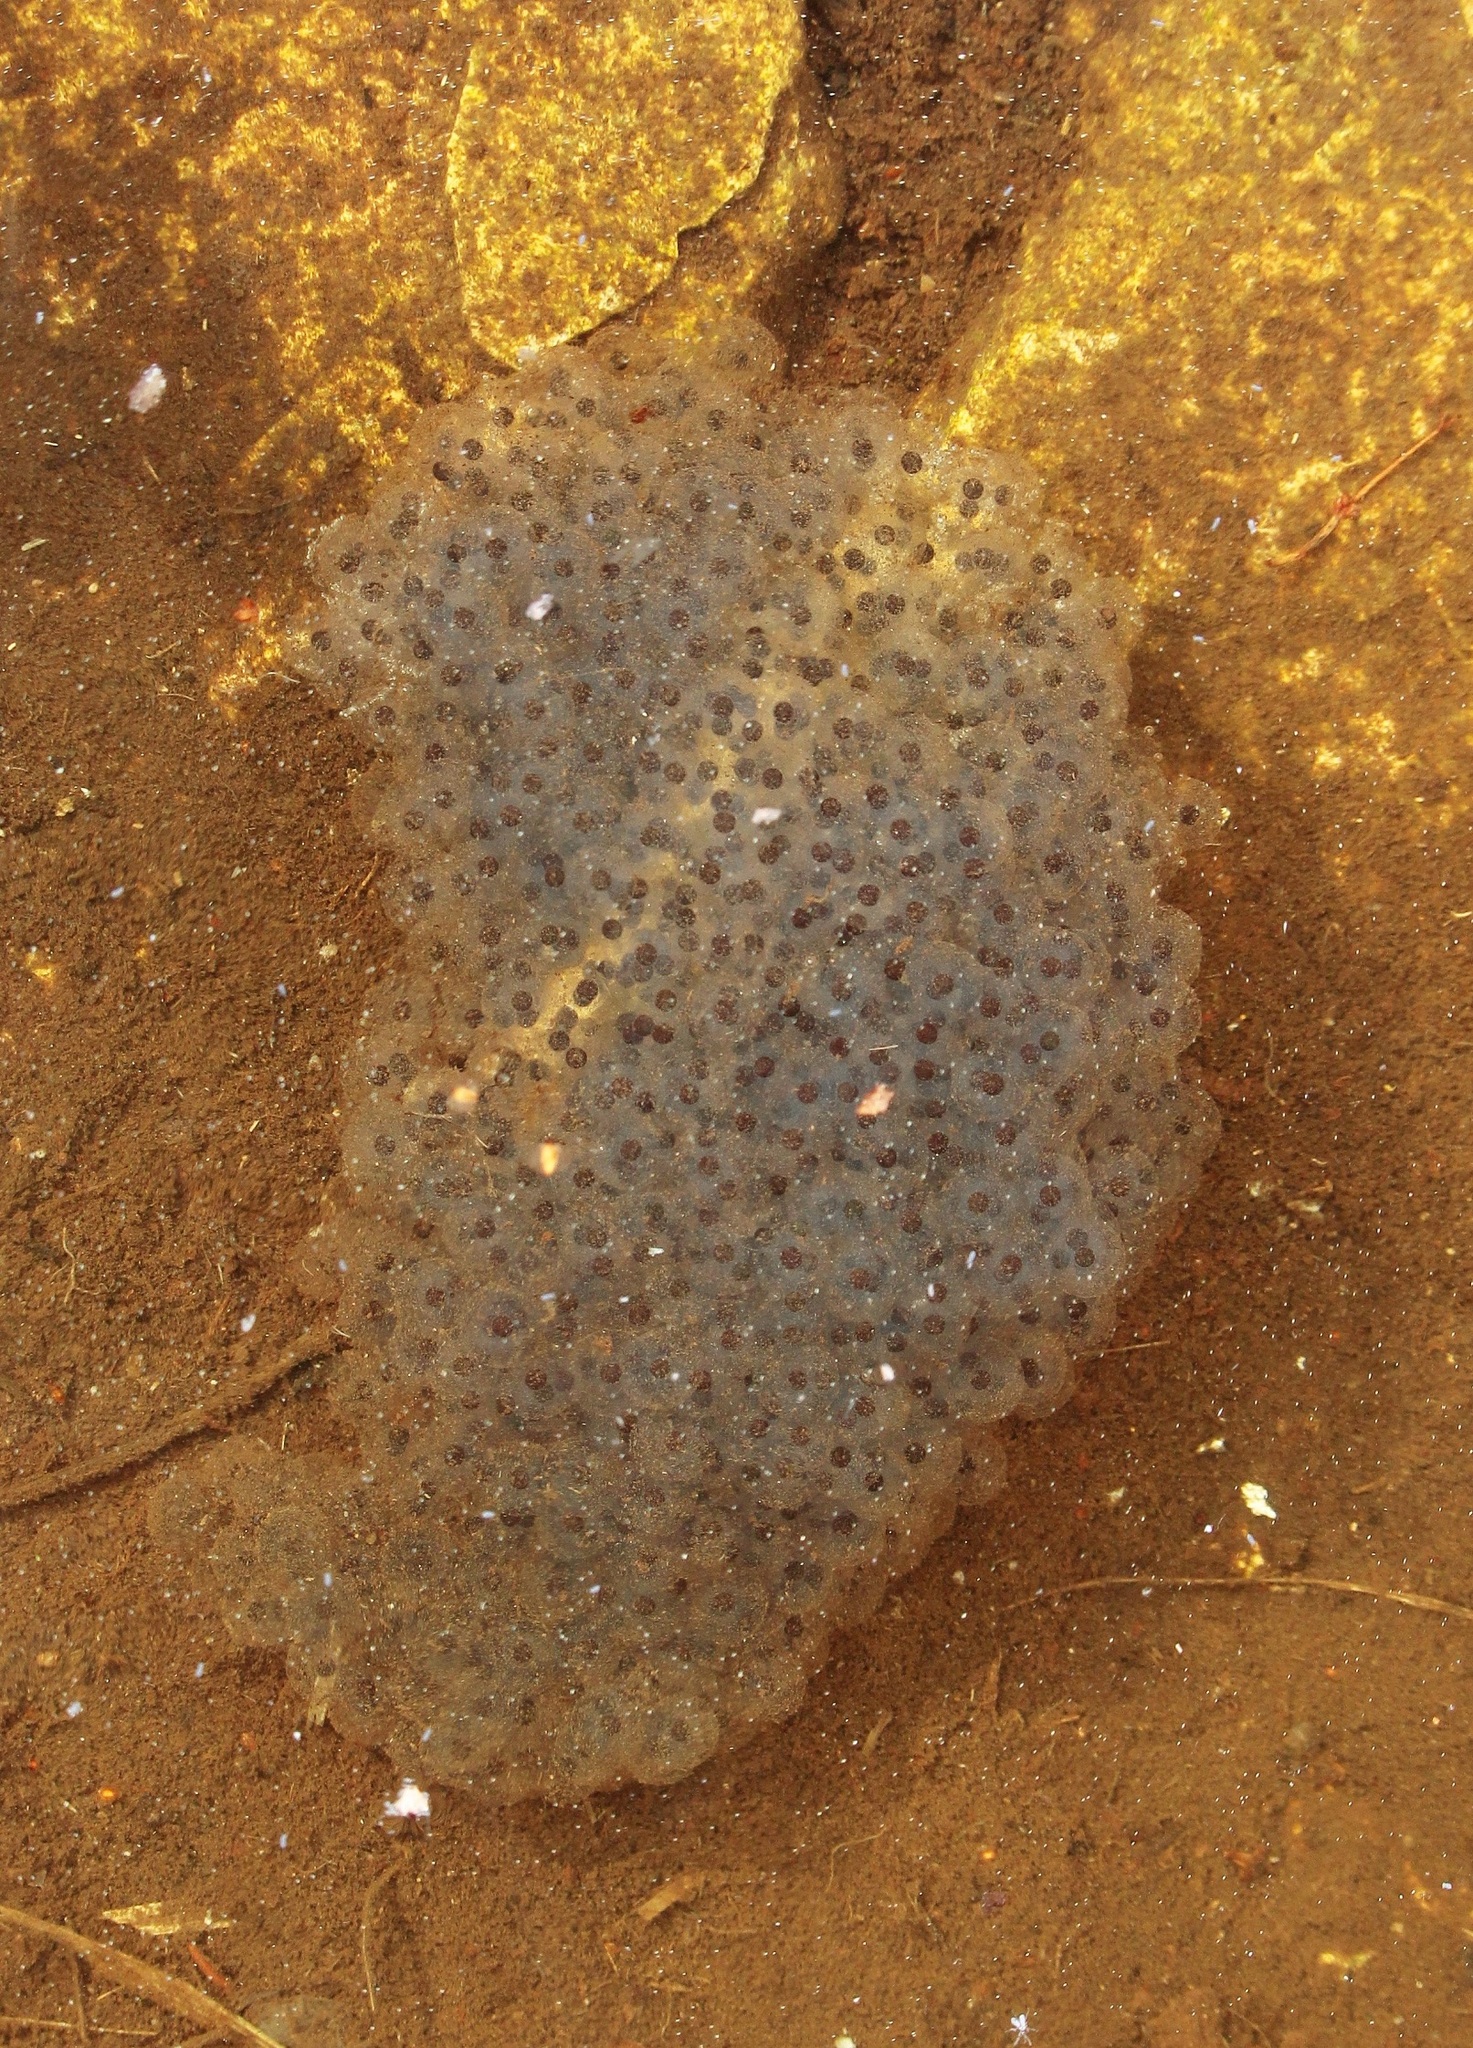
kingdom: Animalia
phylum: Chordata
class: Amphibia
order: Anura
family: Ranidae
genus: Rana
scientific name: Rana macrocnemis
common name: Banded frog
